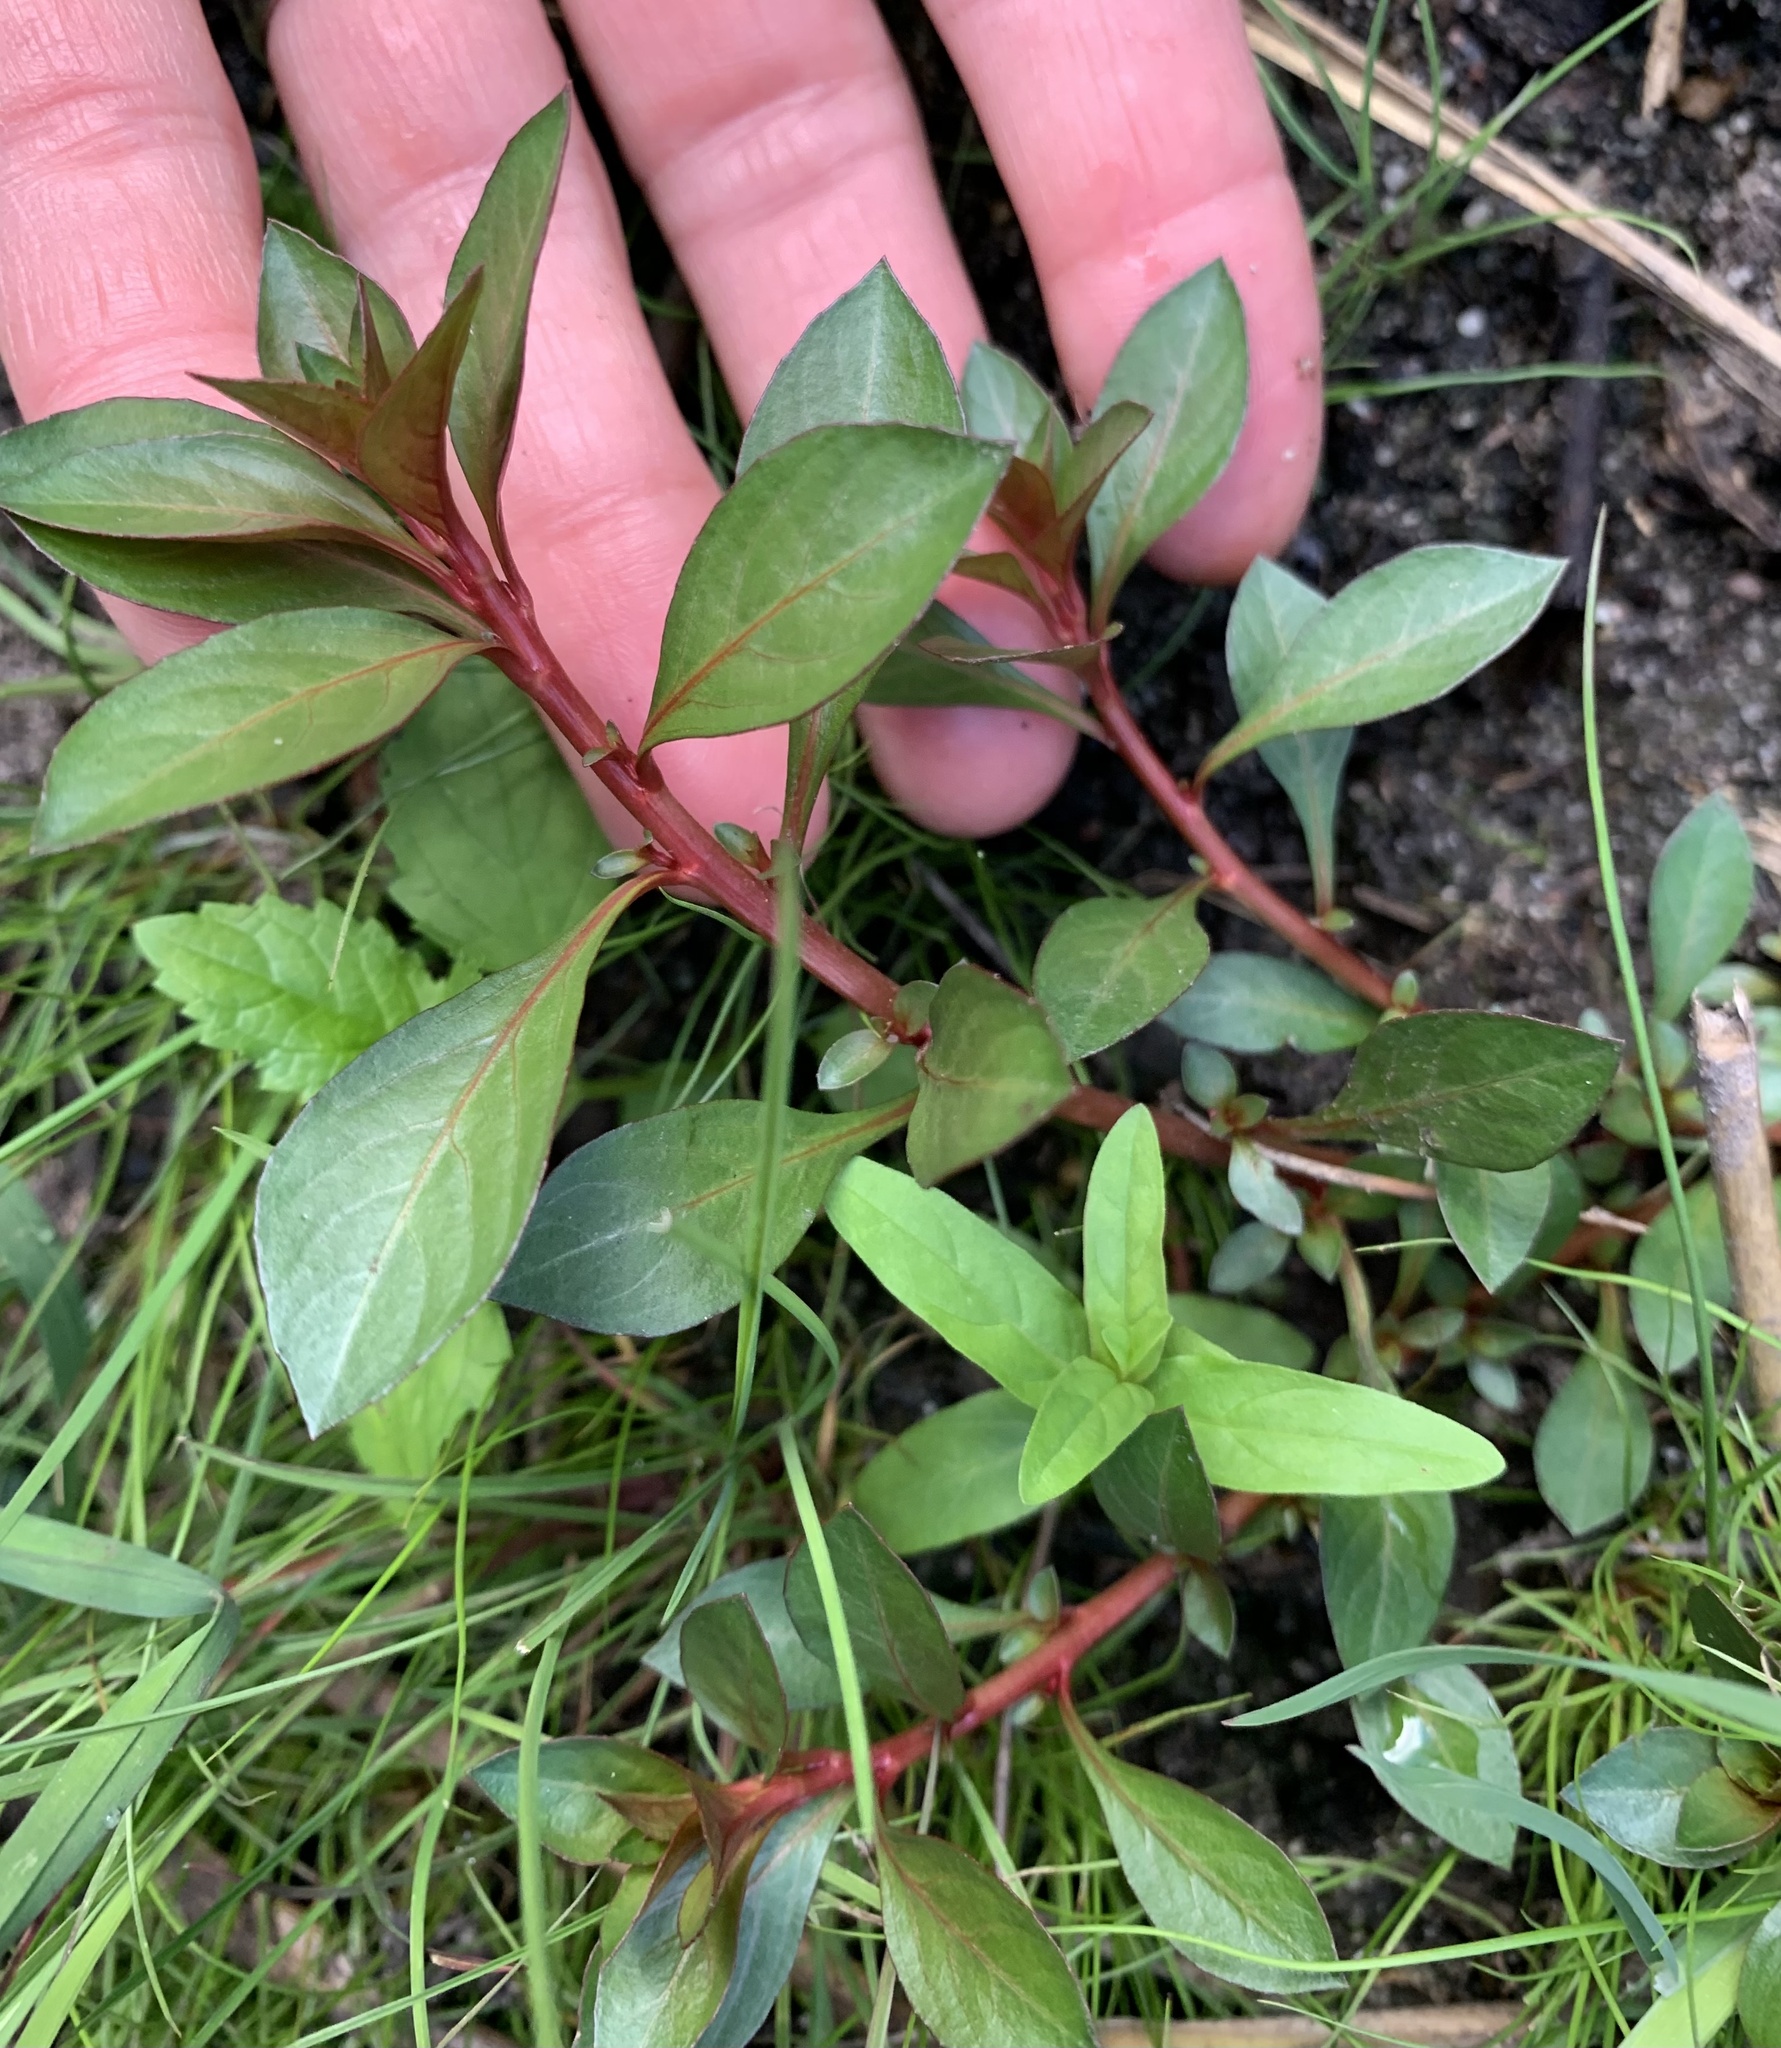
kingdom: Plantae
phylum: Tracheophyta
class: Magnoliopsida
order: Myrtales
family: Onagraceae
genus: Ludwigia
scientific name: Ludwigia palustris
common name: Hampshire-purslane
